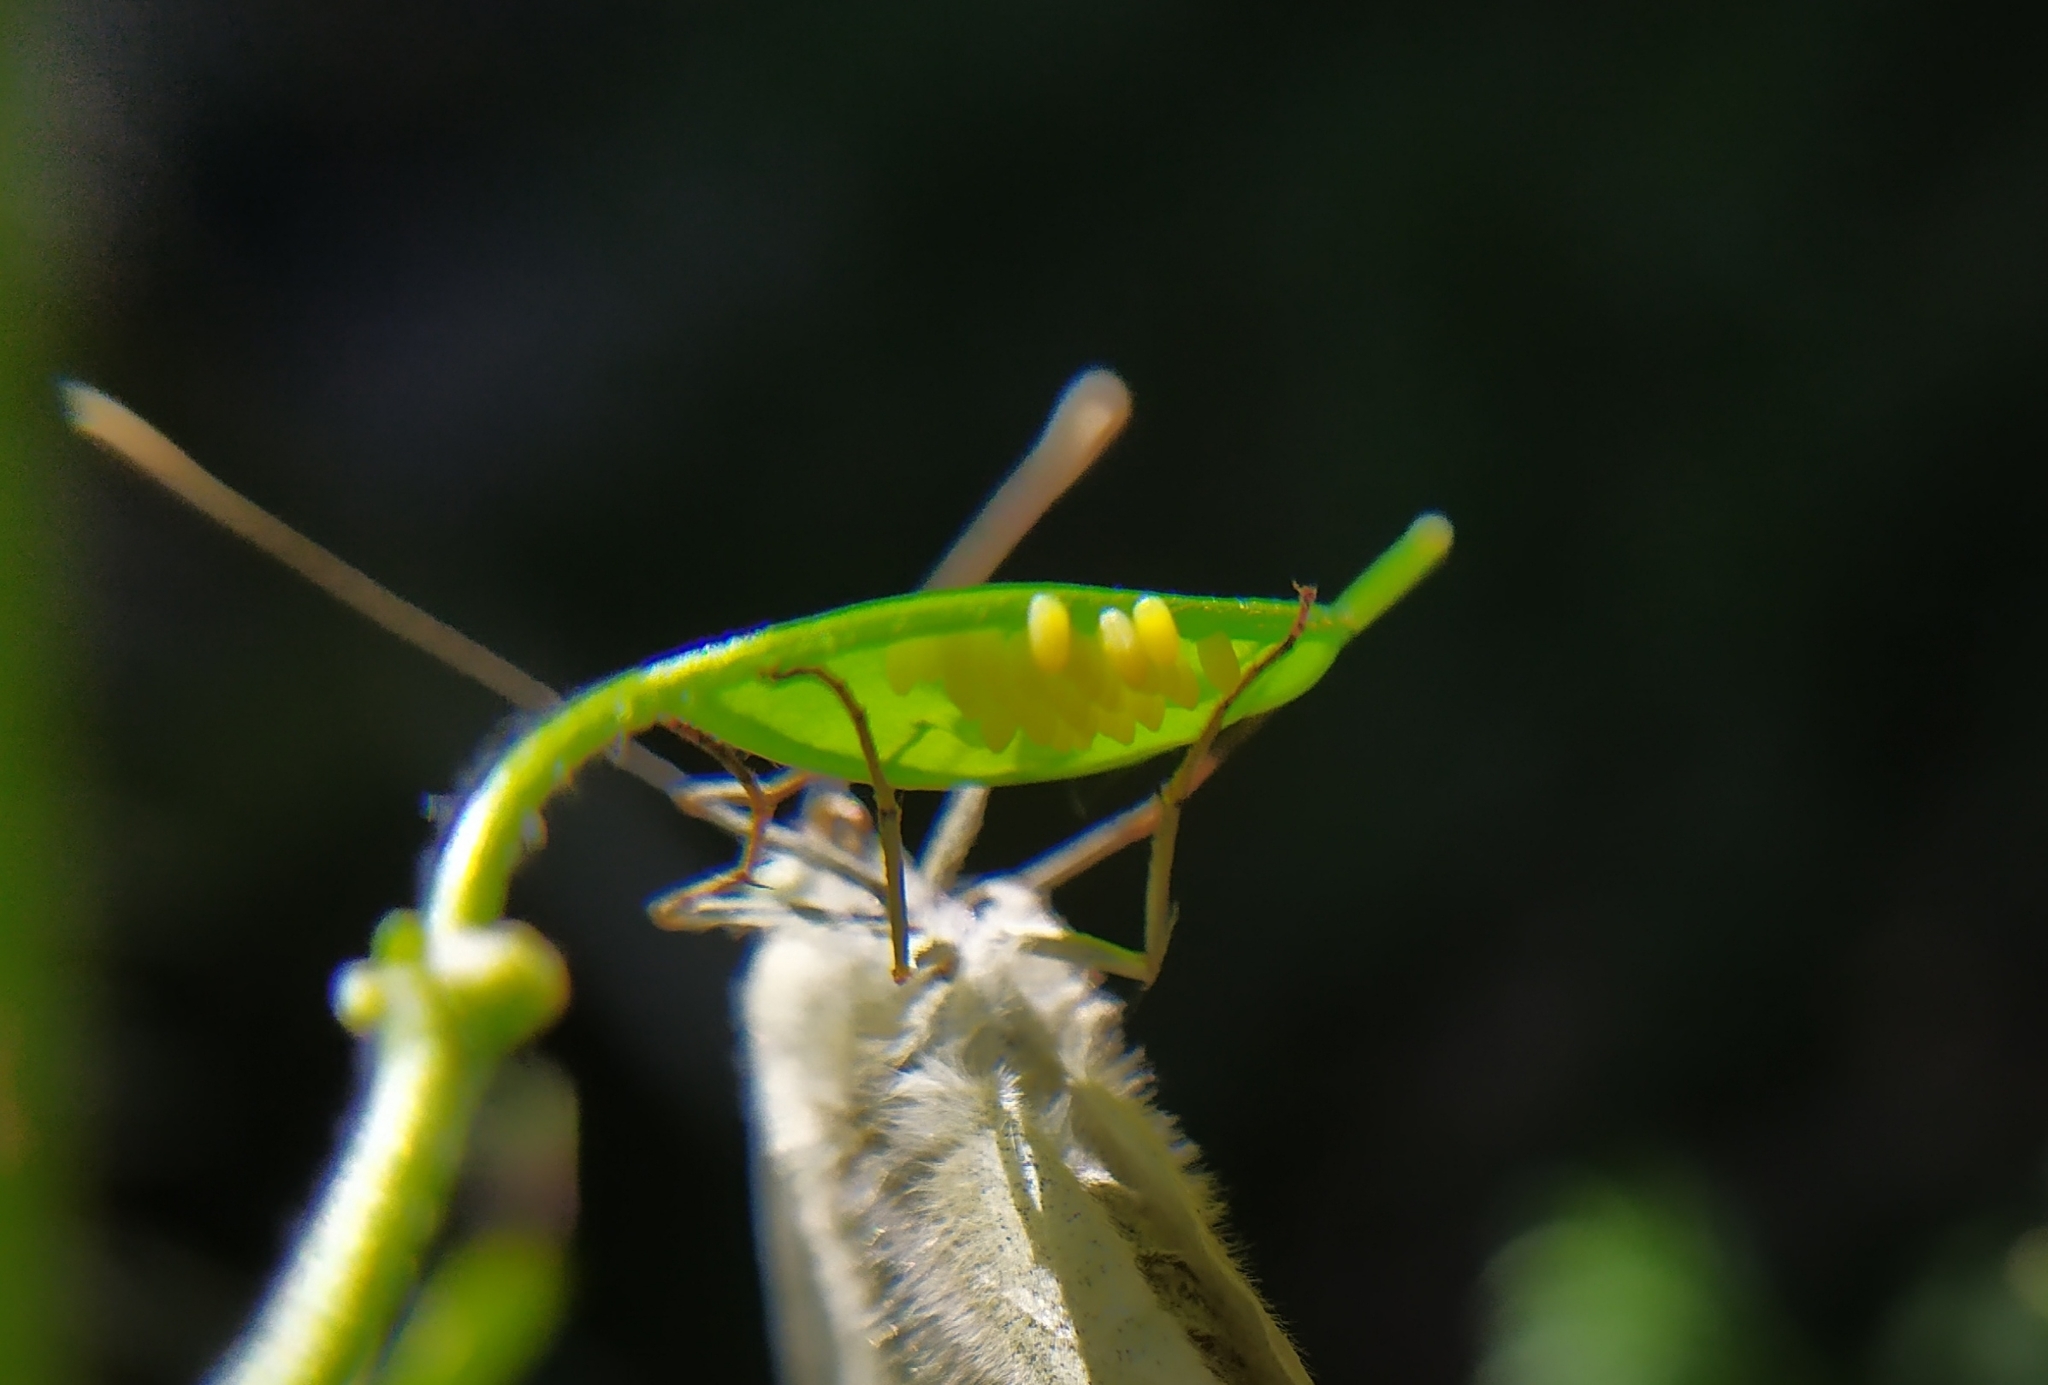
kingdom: Animalia
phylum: Arthropoda
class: Insecta
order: Lepidoptera
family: Pieridae
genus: Pieris
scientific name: Pieris brassicae
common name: Large white
